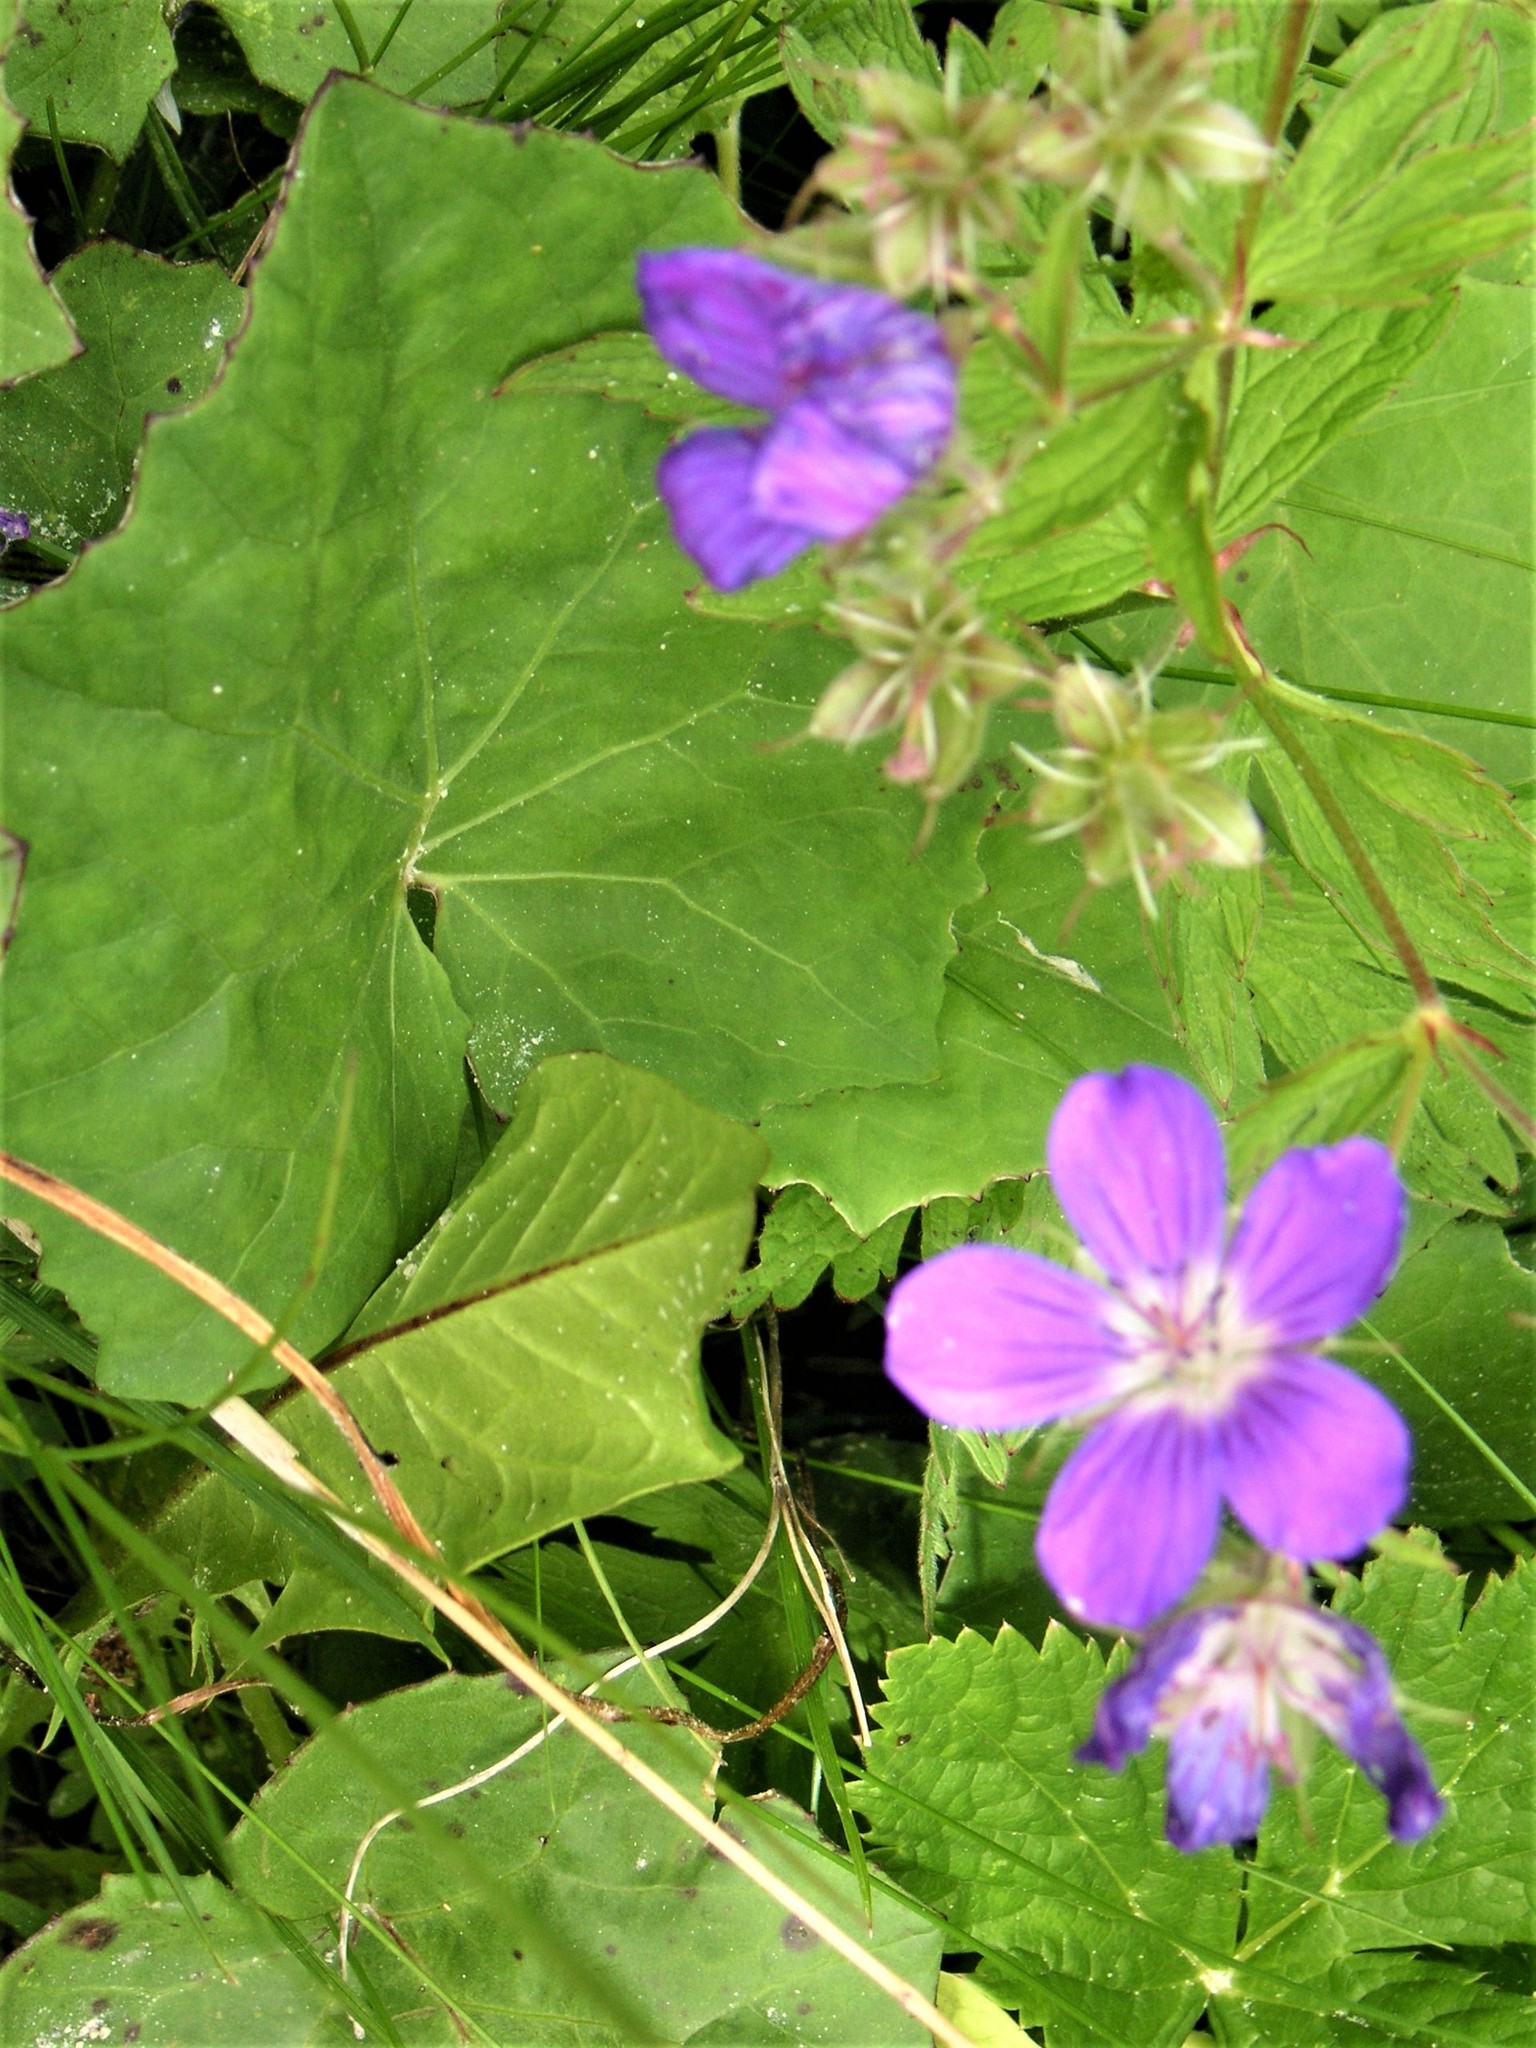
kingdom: Plantae
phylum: Tracheophyta
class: Magnoliopsida
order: Geraniales
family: Geraniaceae
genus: Geranium
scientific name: Geranium sylvaticum
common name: Wood crane's-bill
